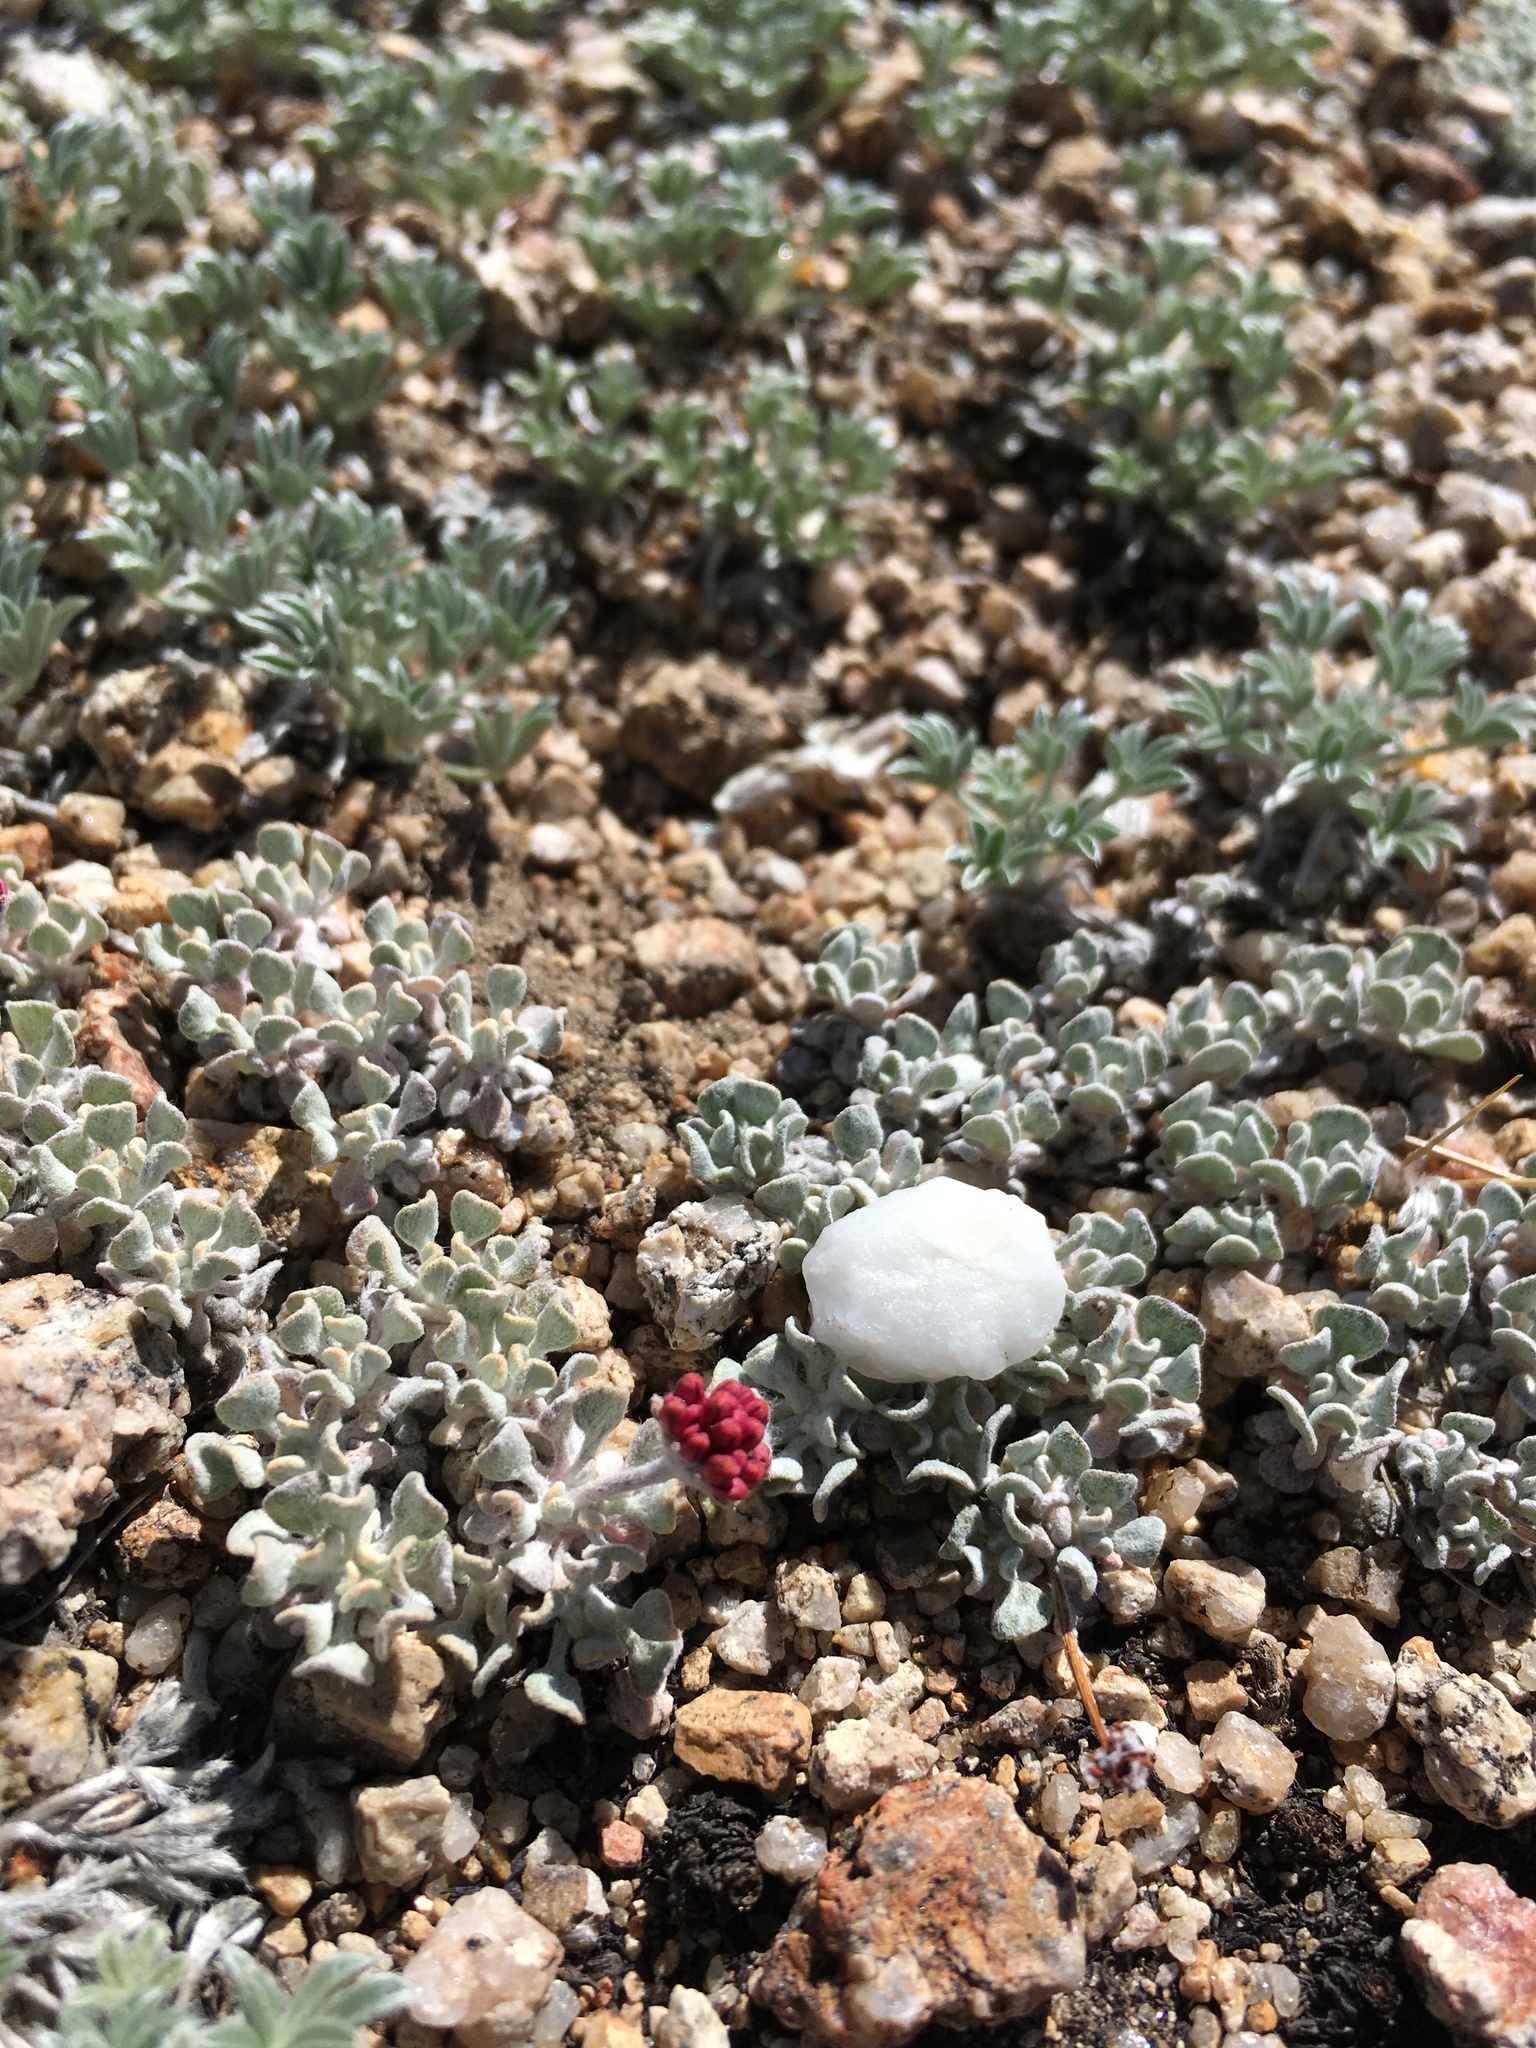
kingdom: Plantae
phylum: Tracheophyta
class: Magnoliopsida
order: Caryophyllales
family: Polygonaceae
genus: Eriogonum
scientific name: Eriogonum ovalifolium
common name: Cushion buckwheat
